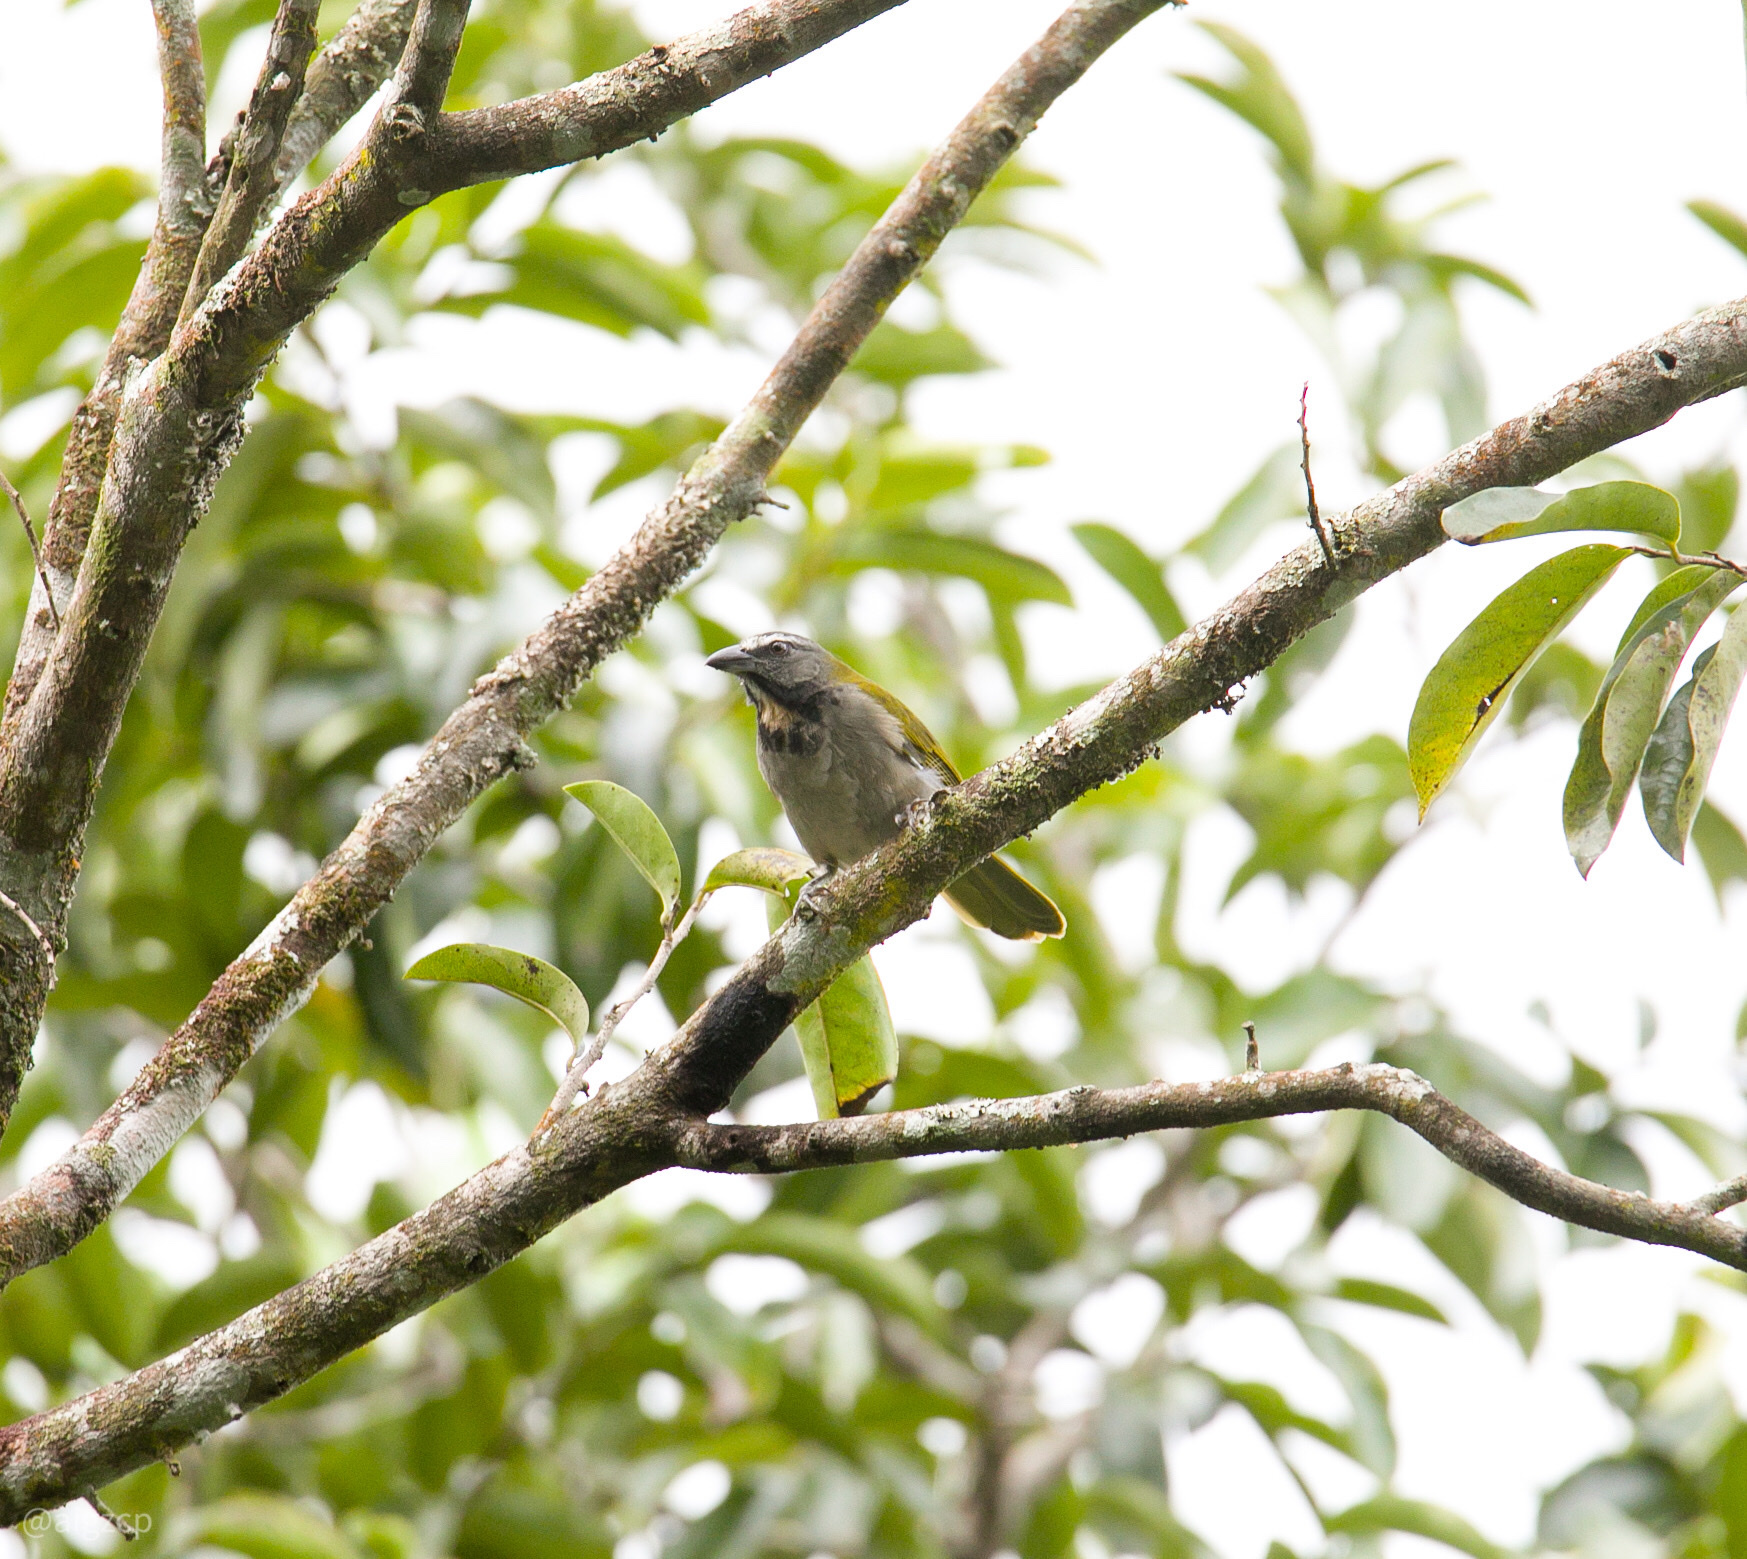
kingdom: Animalia
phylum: Chordata
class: Aves
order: Passeriformes
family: Thraupidae
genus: Saltator
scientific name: Saltator maximus
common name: Buff-throated saltator
